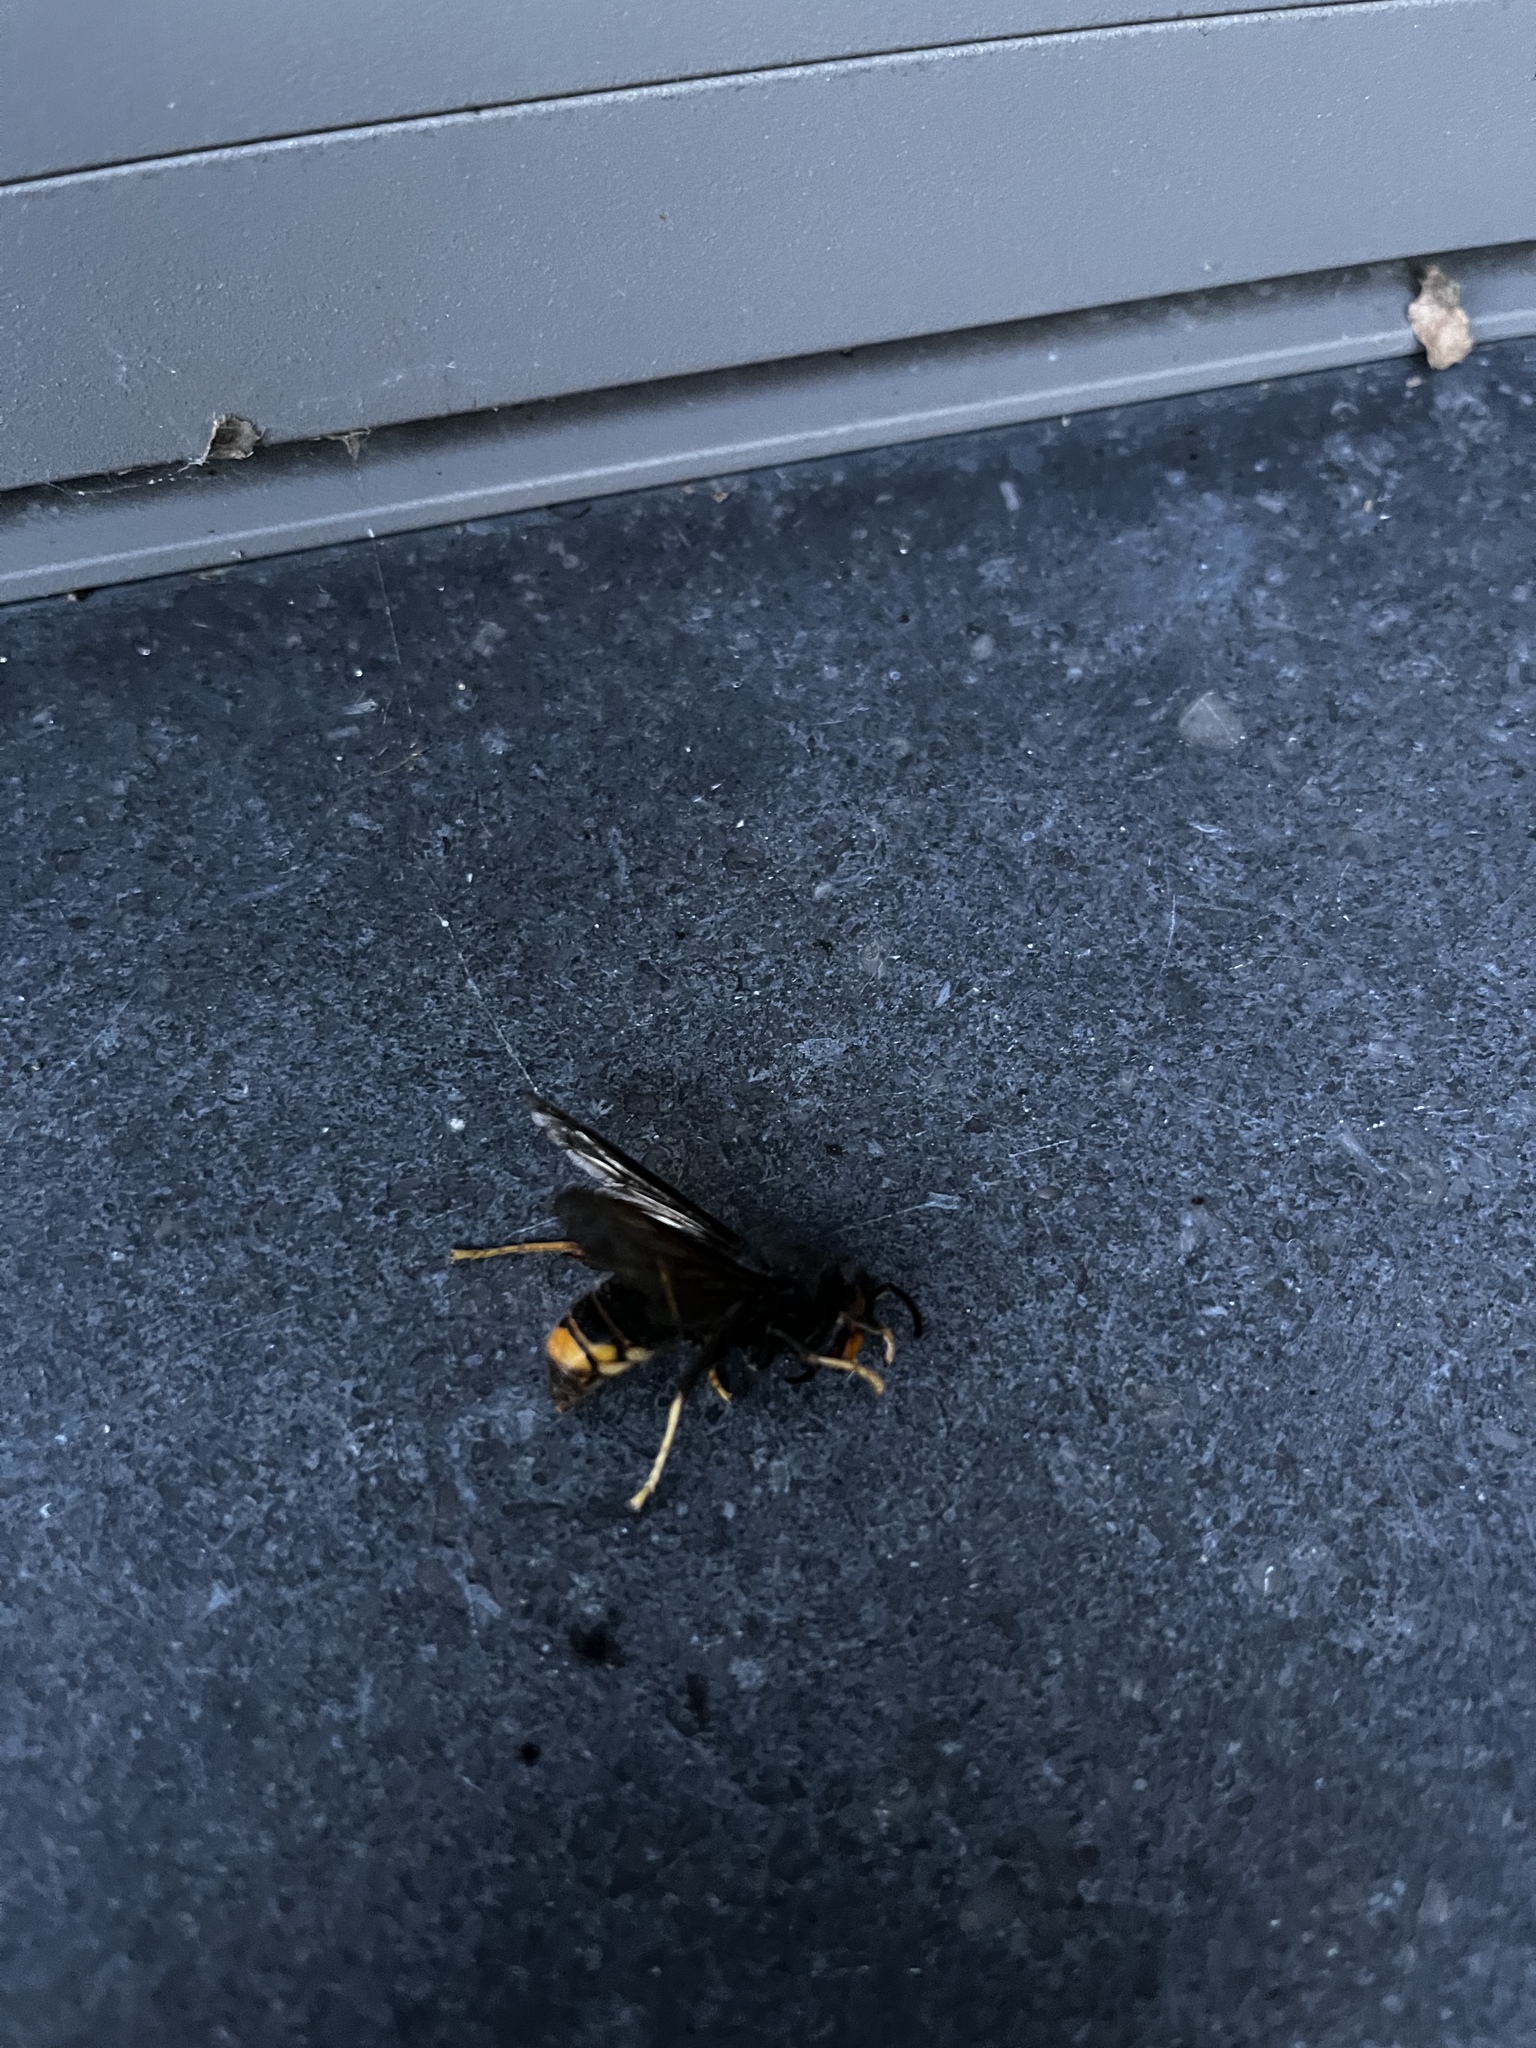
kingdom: Animalia
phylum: Arthropoda
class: Insecta
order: Hymenoptera
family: Vespidae
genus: Vespa
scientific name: Vespa velutina
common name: Asian hornet
